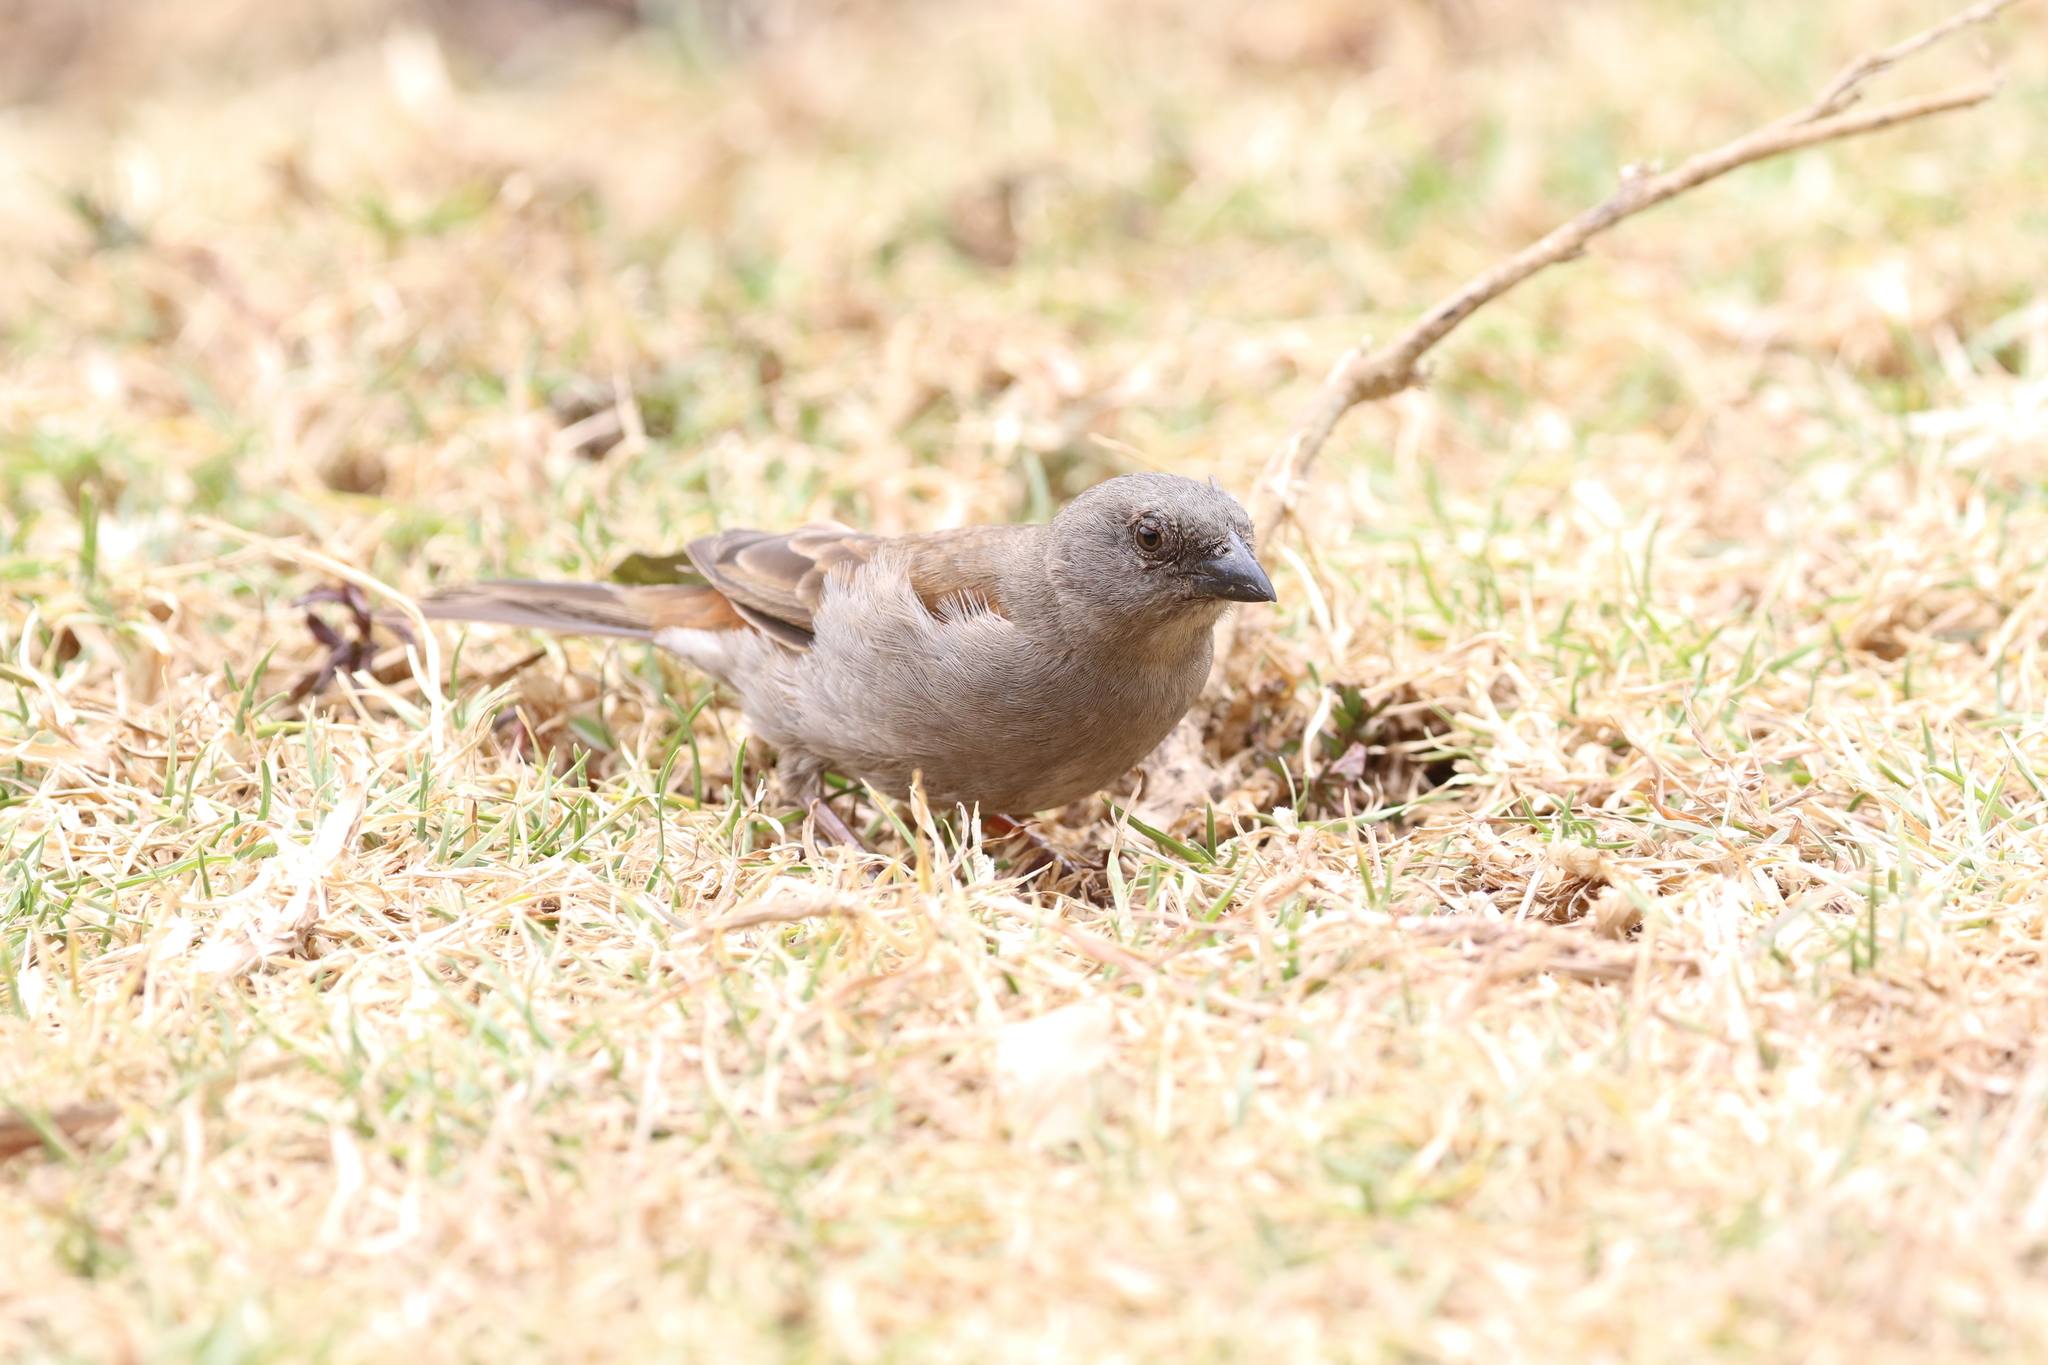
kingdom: Animalia
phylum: Chordata
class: Aves
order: Passeriformes
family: Passeridae
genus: Passer
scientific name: Passer griseus
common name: Northern grey-headed sparrow
